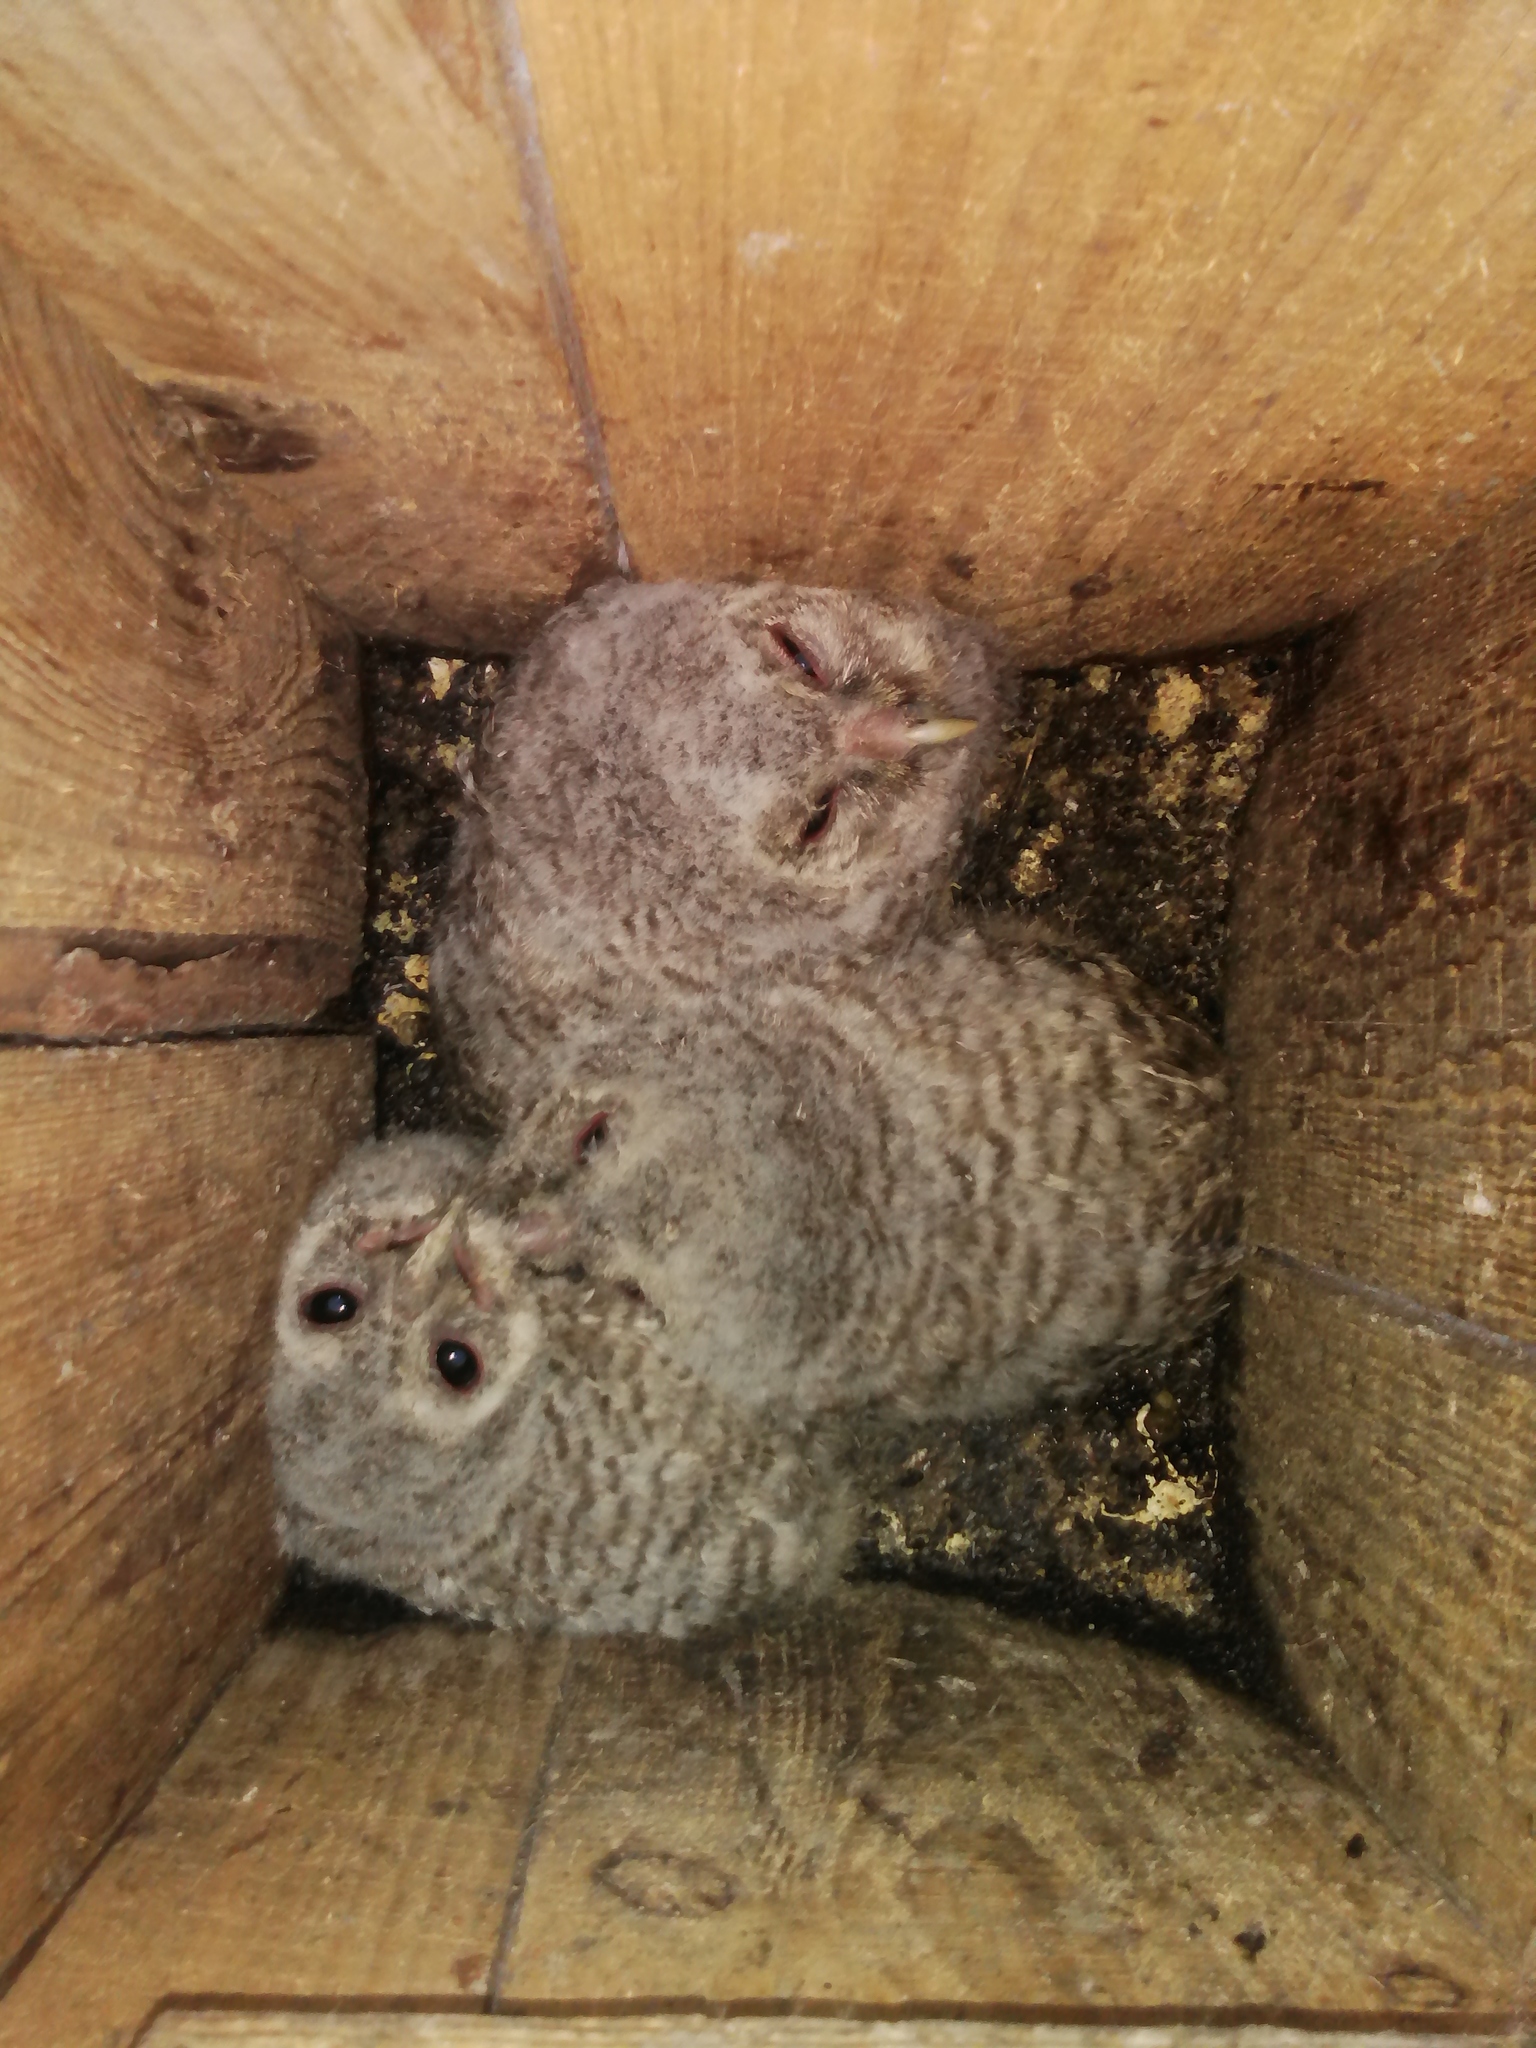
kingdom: Animalia
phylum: Chordata
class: Aves
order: Strigiformes
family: Strigidae
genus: Strix
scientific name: Strix aluco
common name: Tawny owl
